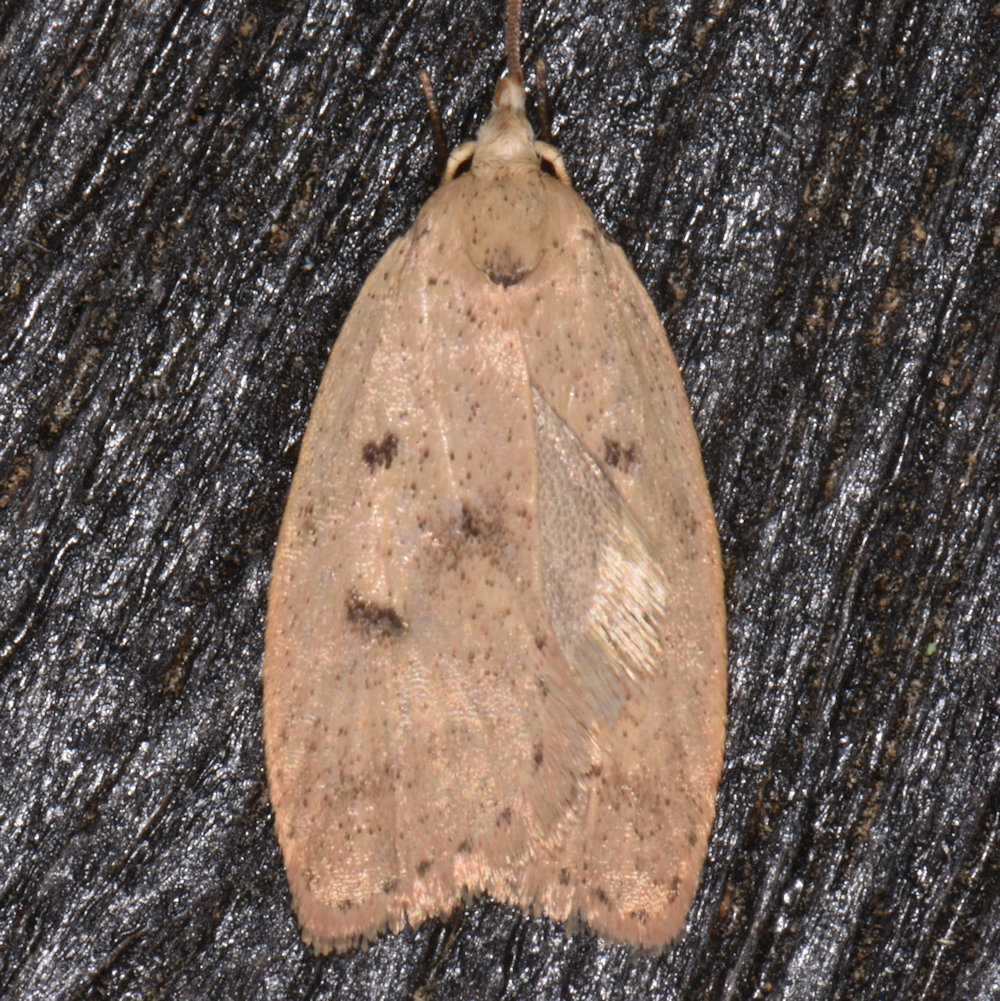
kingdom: Animalia
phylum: Arthropoda
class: Insecta
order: Lepidoptera
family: Peleopodidae
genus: Machimia
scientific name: Machimia tentoriferella
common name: Gold-striped leaftier moth
